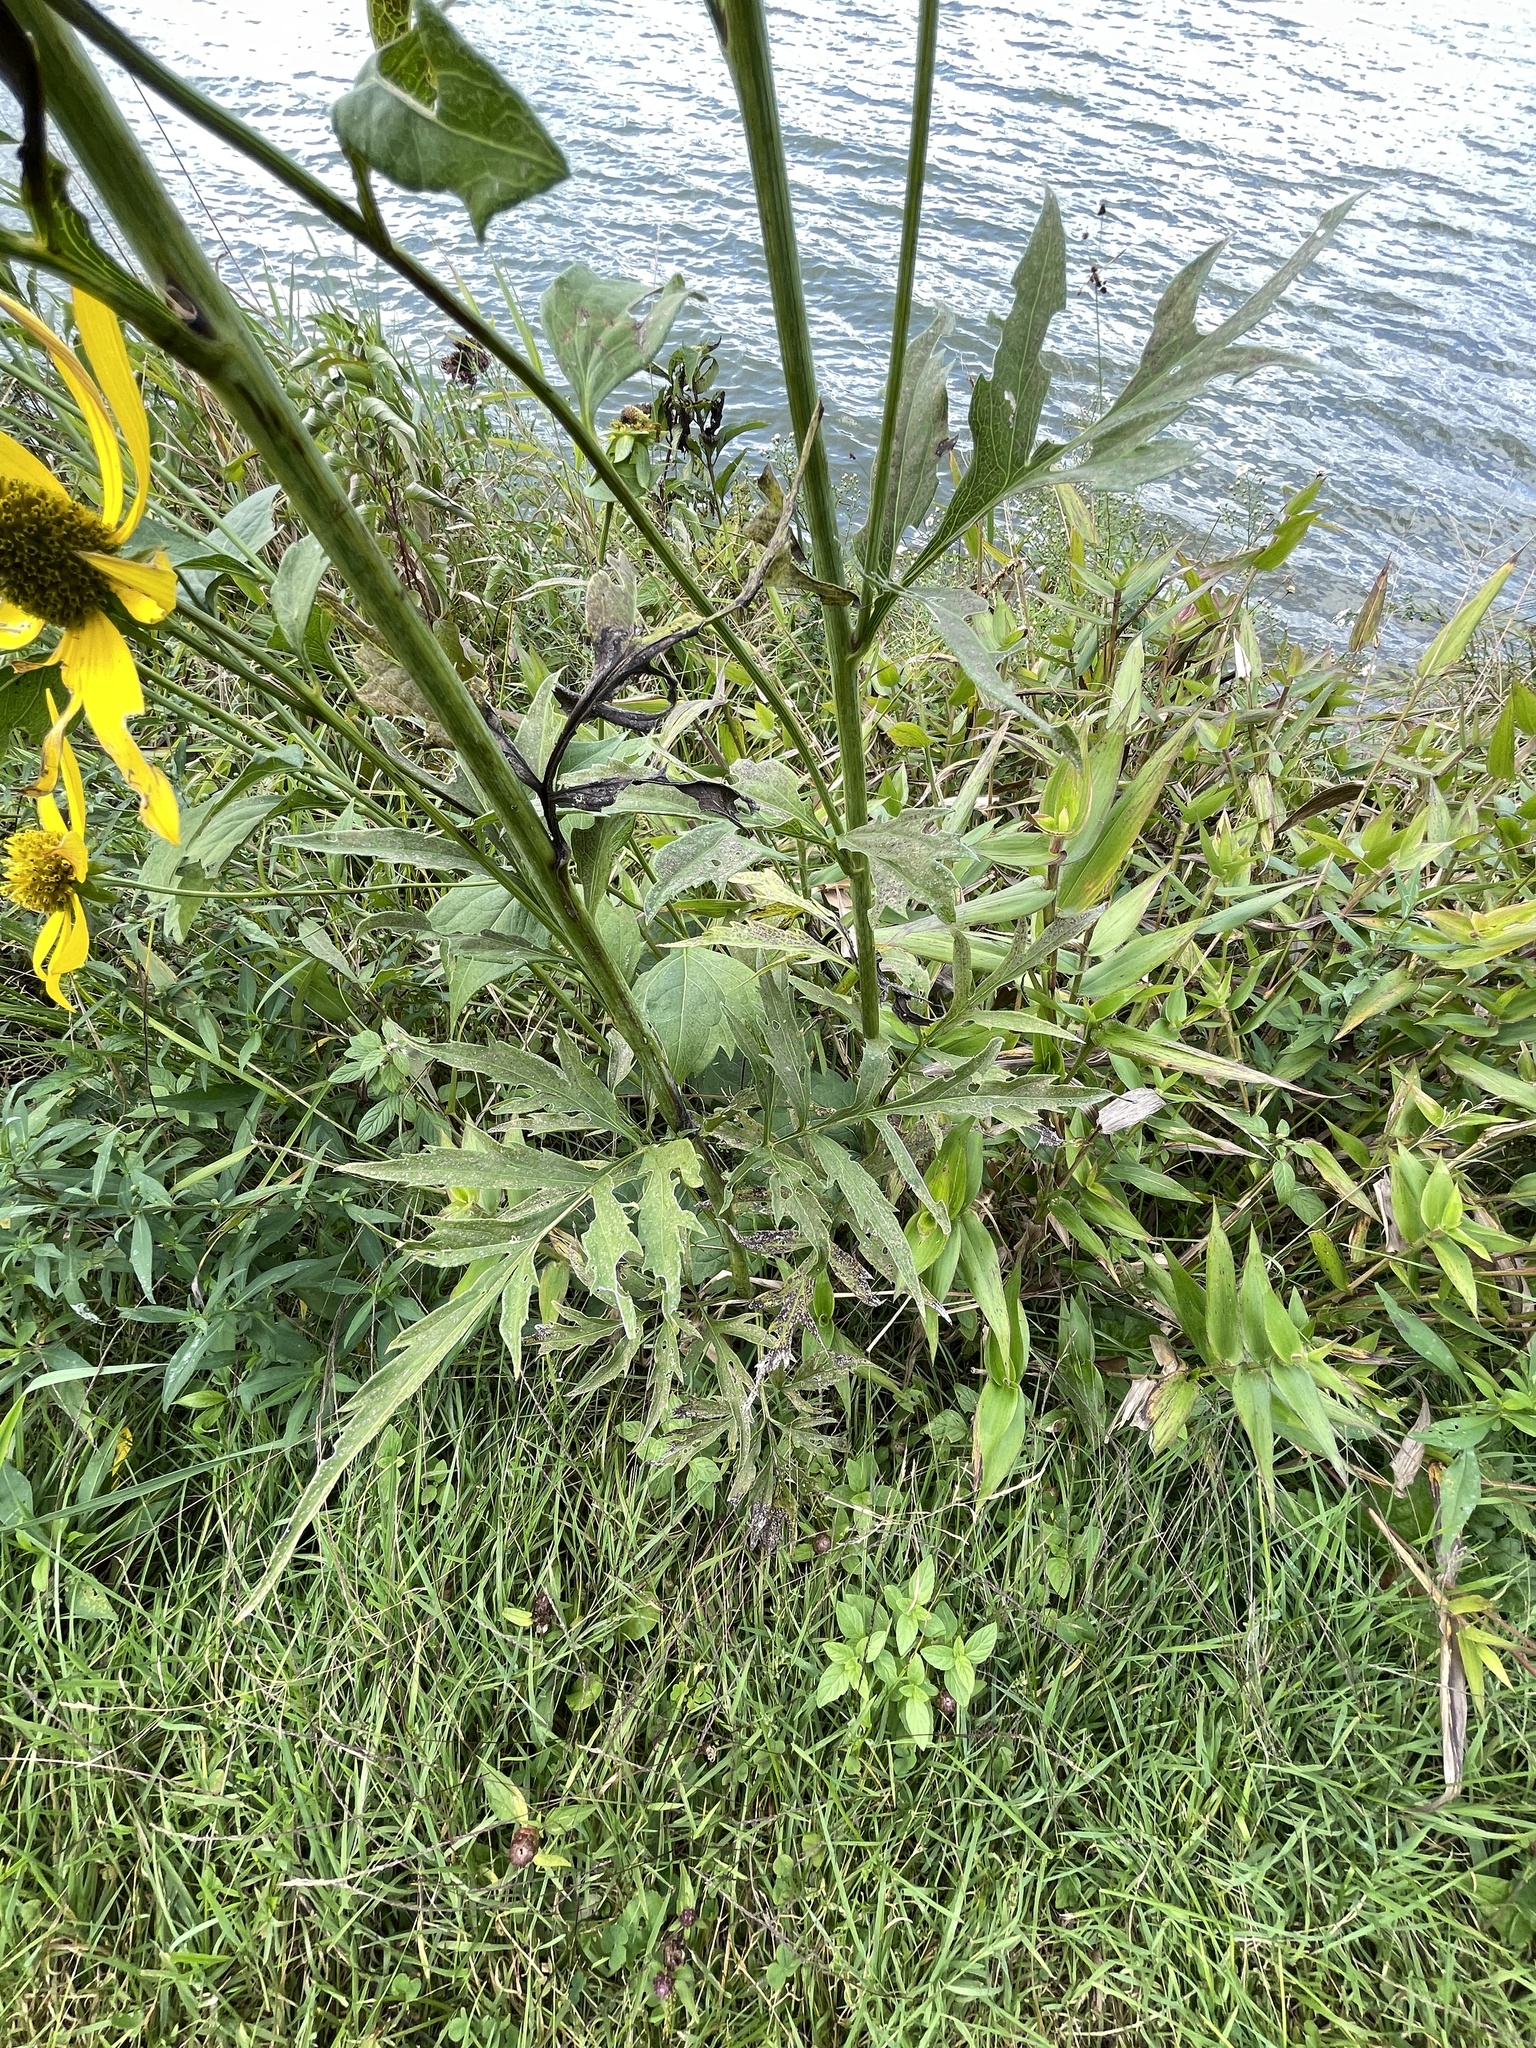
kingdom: Plantae
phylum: Tracheophyta
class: Magnoliopsida
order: Asterales
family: Asteraceae
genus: Rudbeckia
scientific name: Rudbeckia laciniata
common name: Coneflower
